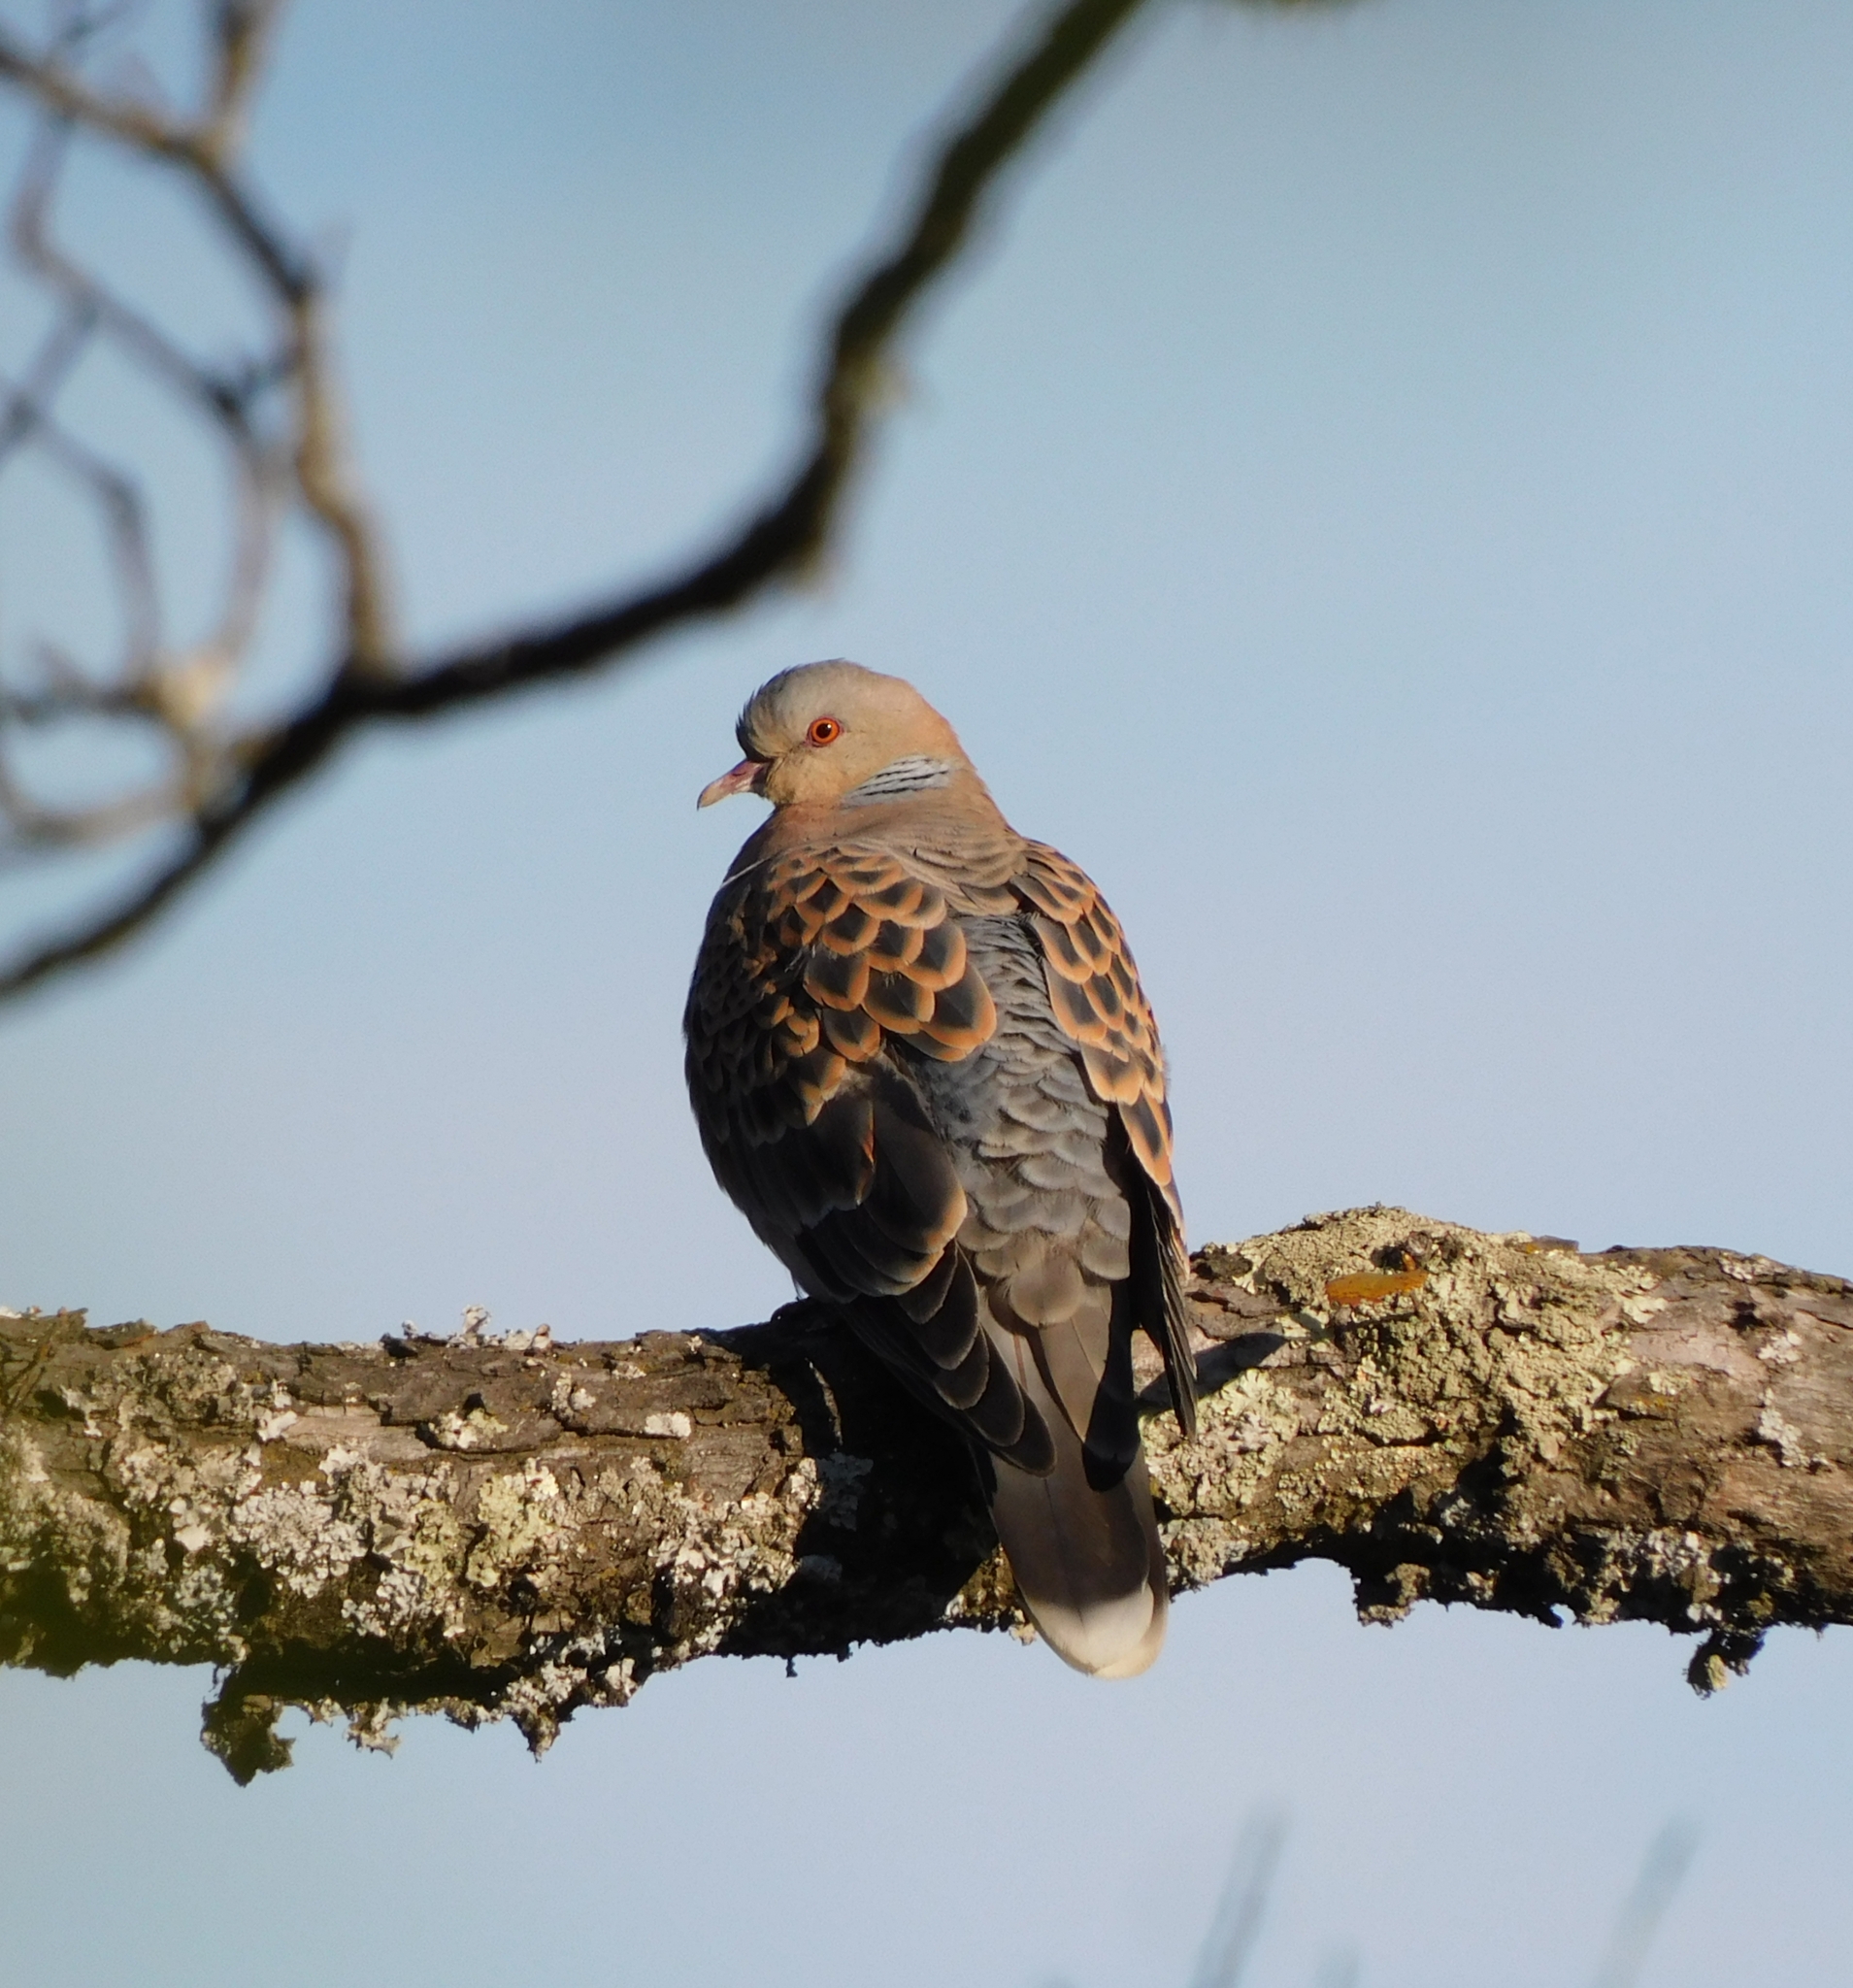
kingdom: Animalia
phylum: Chordata
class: Aves
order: Columbiformes
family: Columbidae
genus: Streptopelia
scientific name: Streptopelia orientalis
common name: Oriental turtle dove
